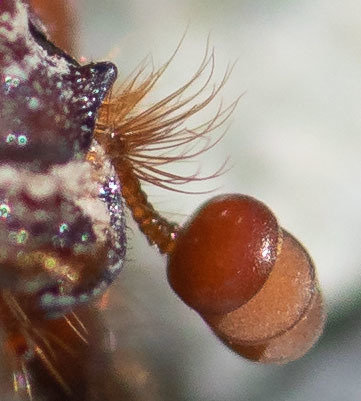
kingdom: Animalia
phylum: Arthropoda
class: Insecta
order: Coleoptera
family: Geotrupidae
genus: Bolbelasmus
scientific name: Bolbelasmus hornii
